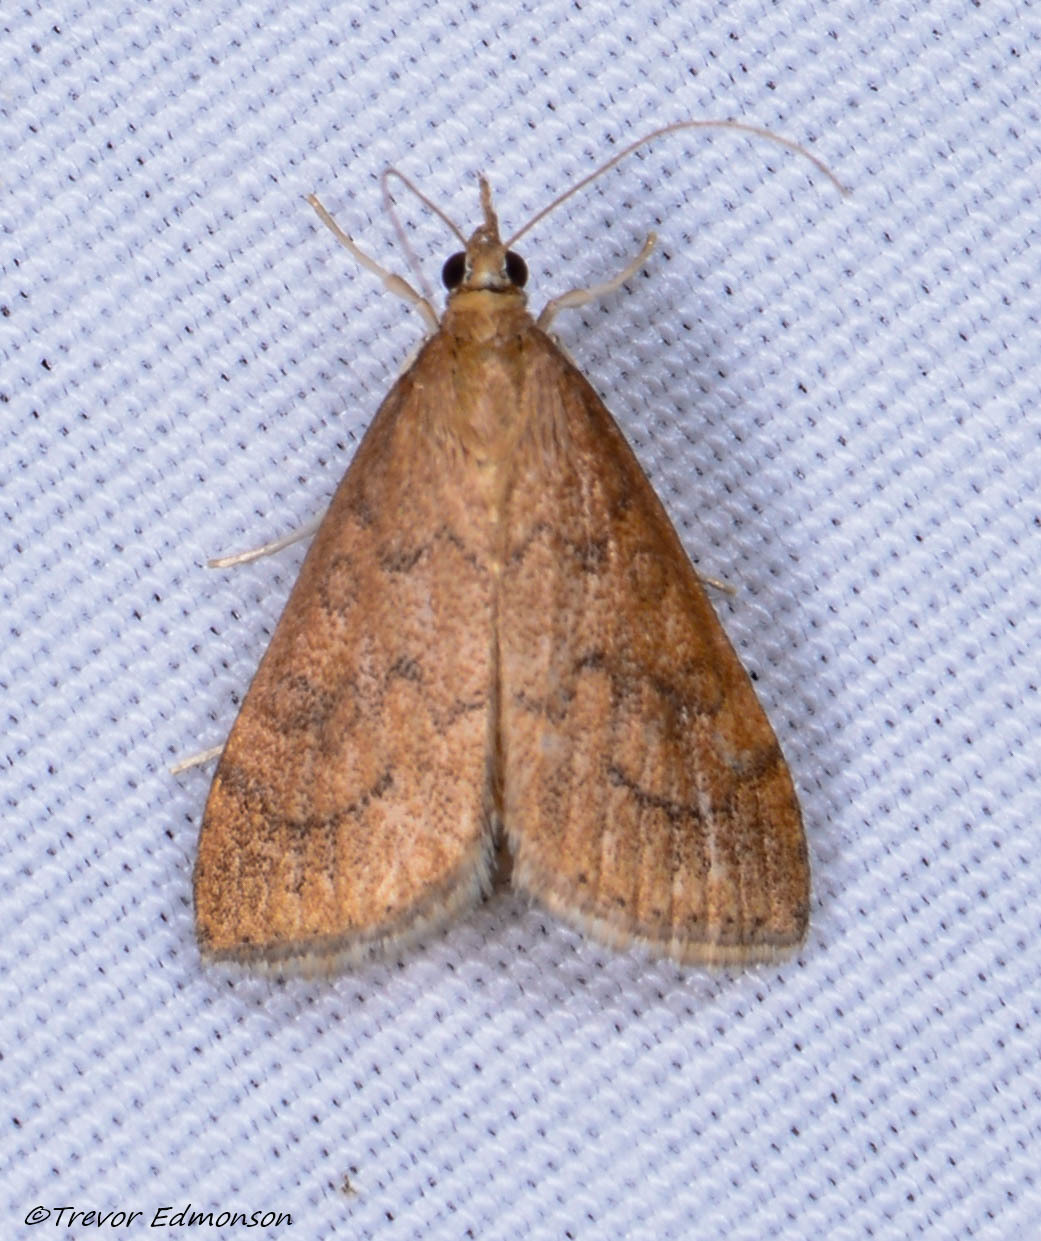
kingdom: Animalia
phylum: Arthropoda
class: Insecta
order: Lepidoptera
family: Crambidae
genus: Udea
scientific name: Udea rubigalis
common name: Celery leaftier moth
